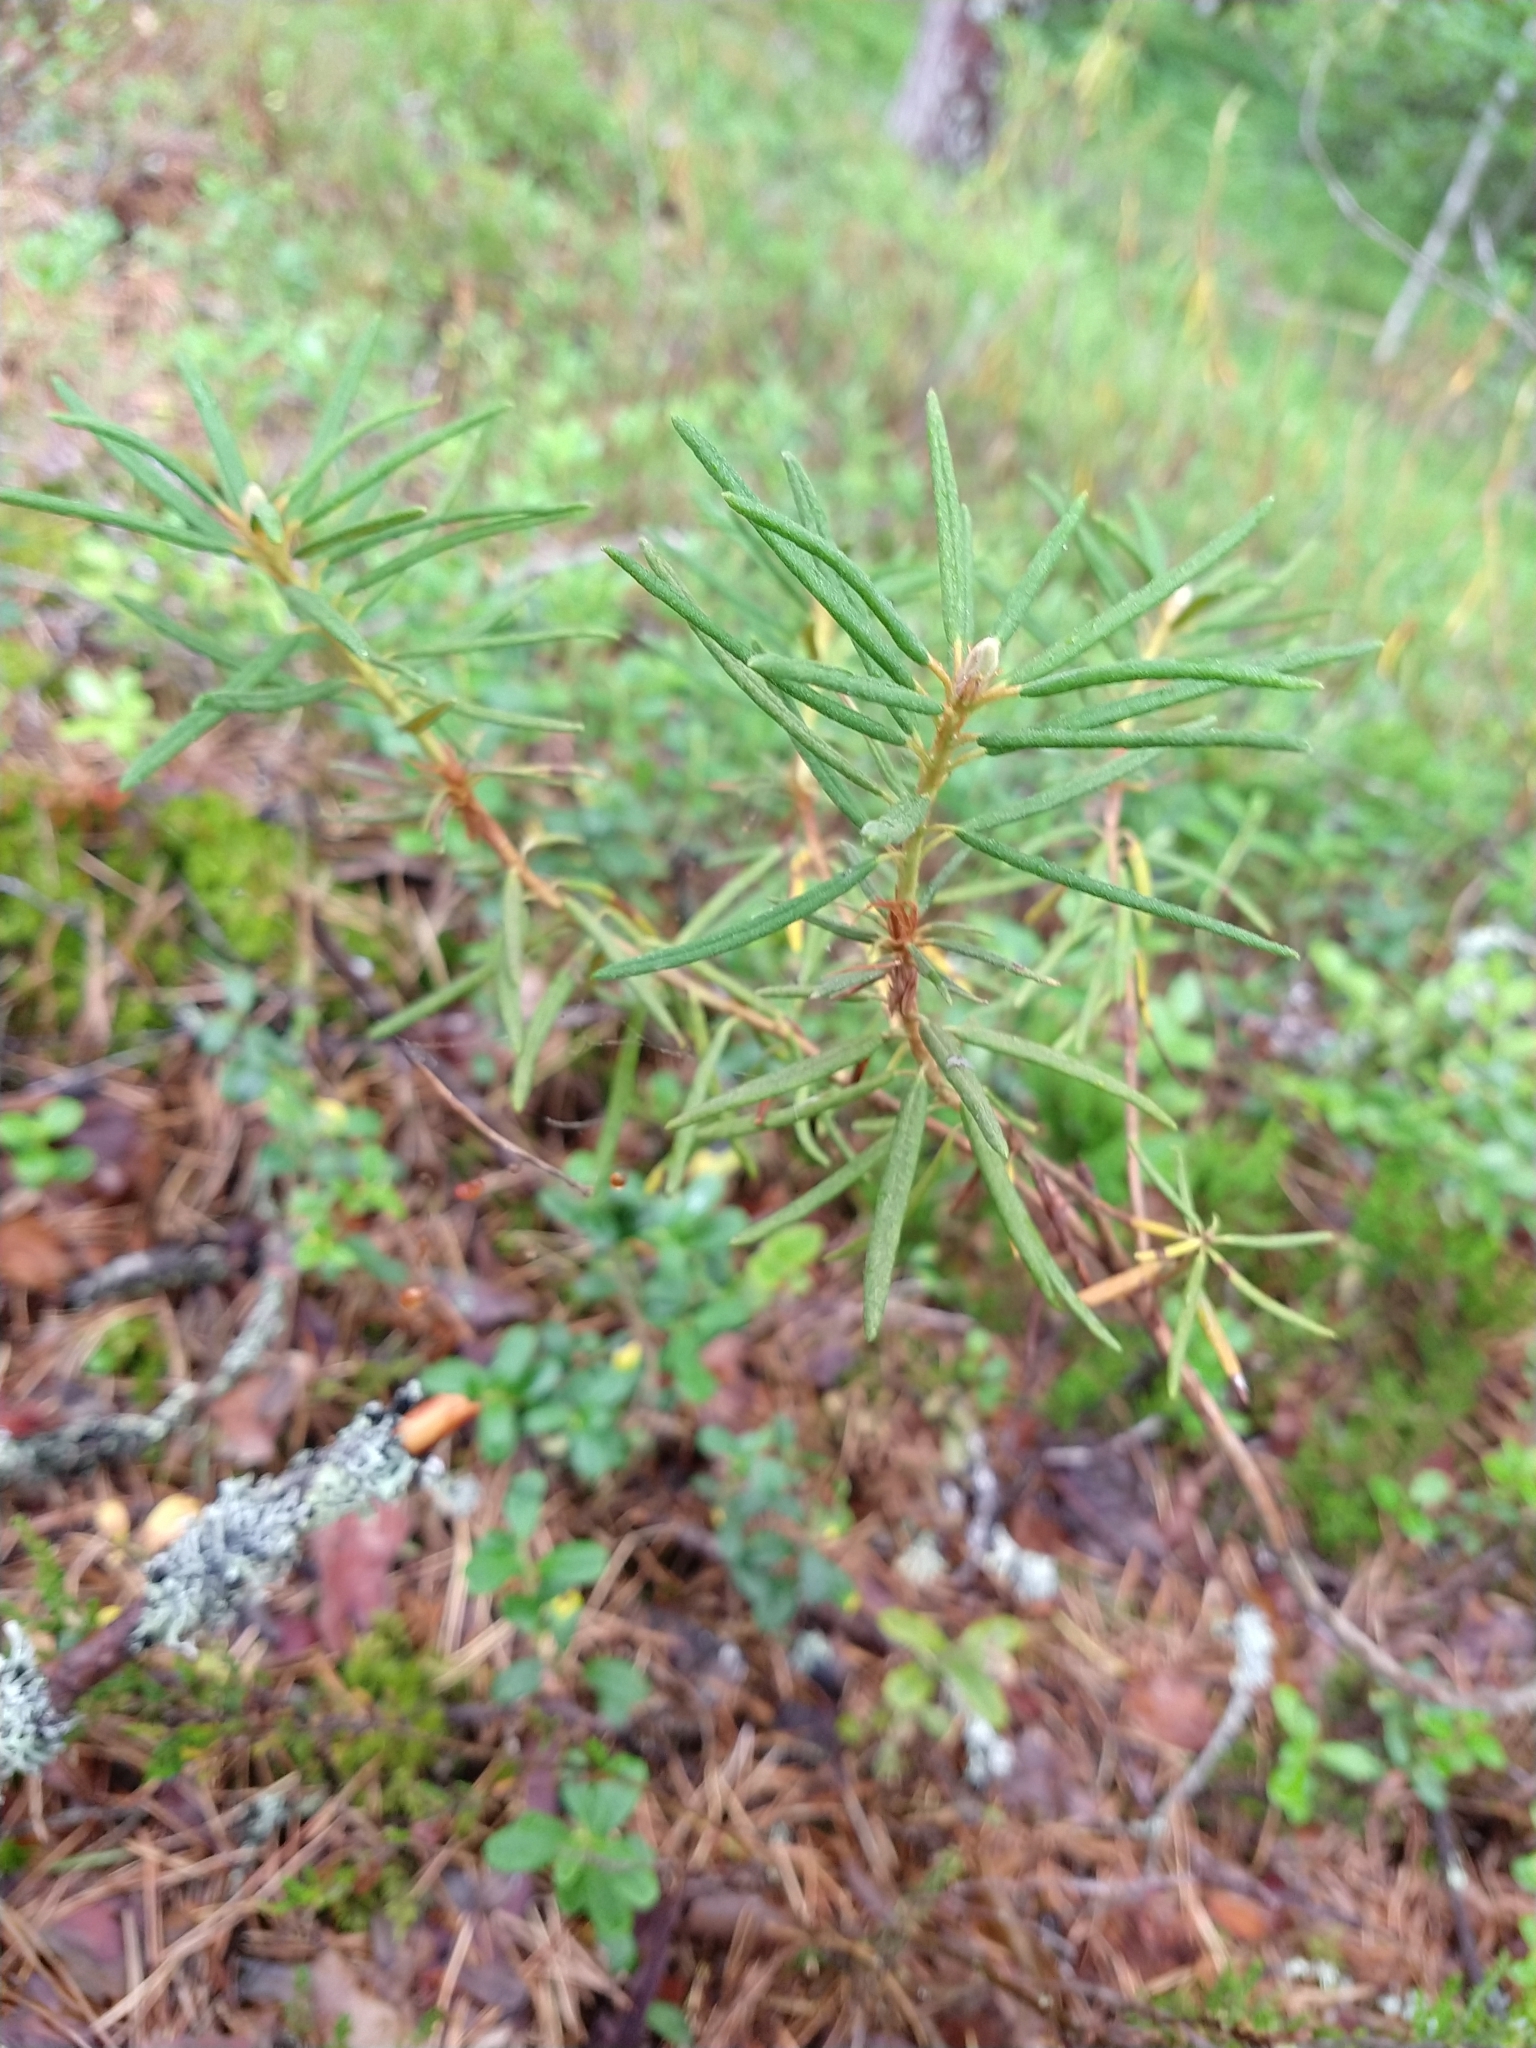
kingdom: Plantae
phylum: Tracheophyta
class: Magnoliopsida
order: Ericales
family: Ericaceae
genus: Rhododendron
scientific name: Rhododendron tomentosum
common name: Marsh labrador tea
